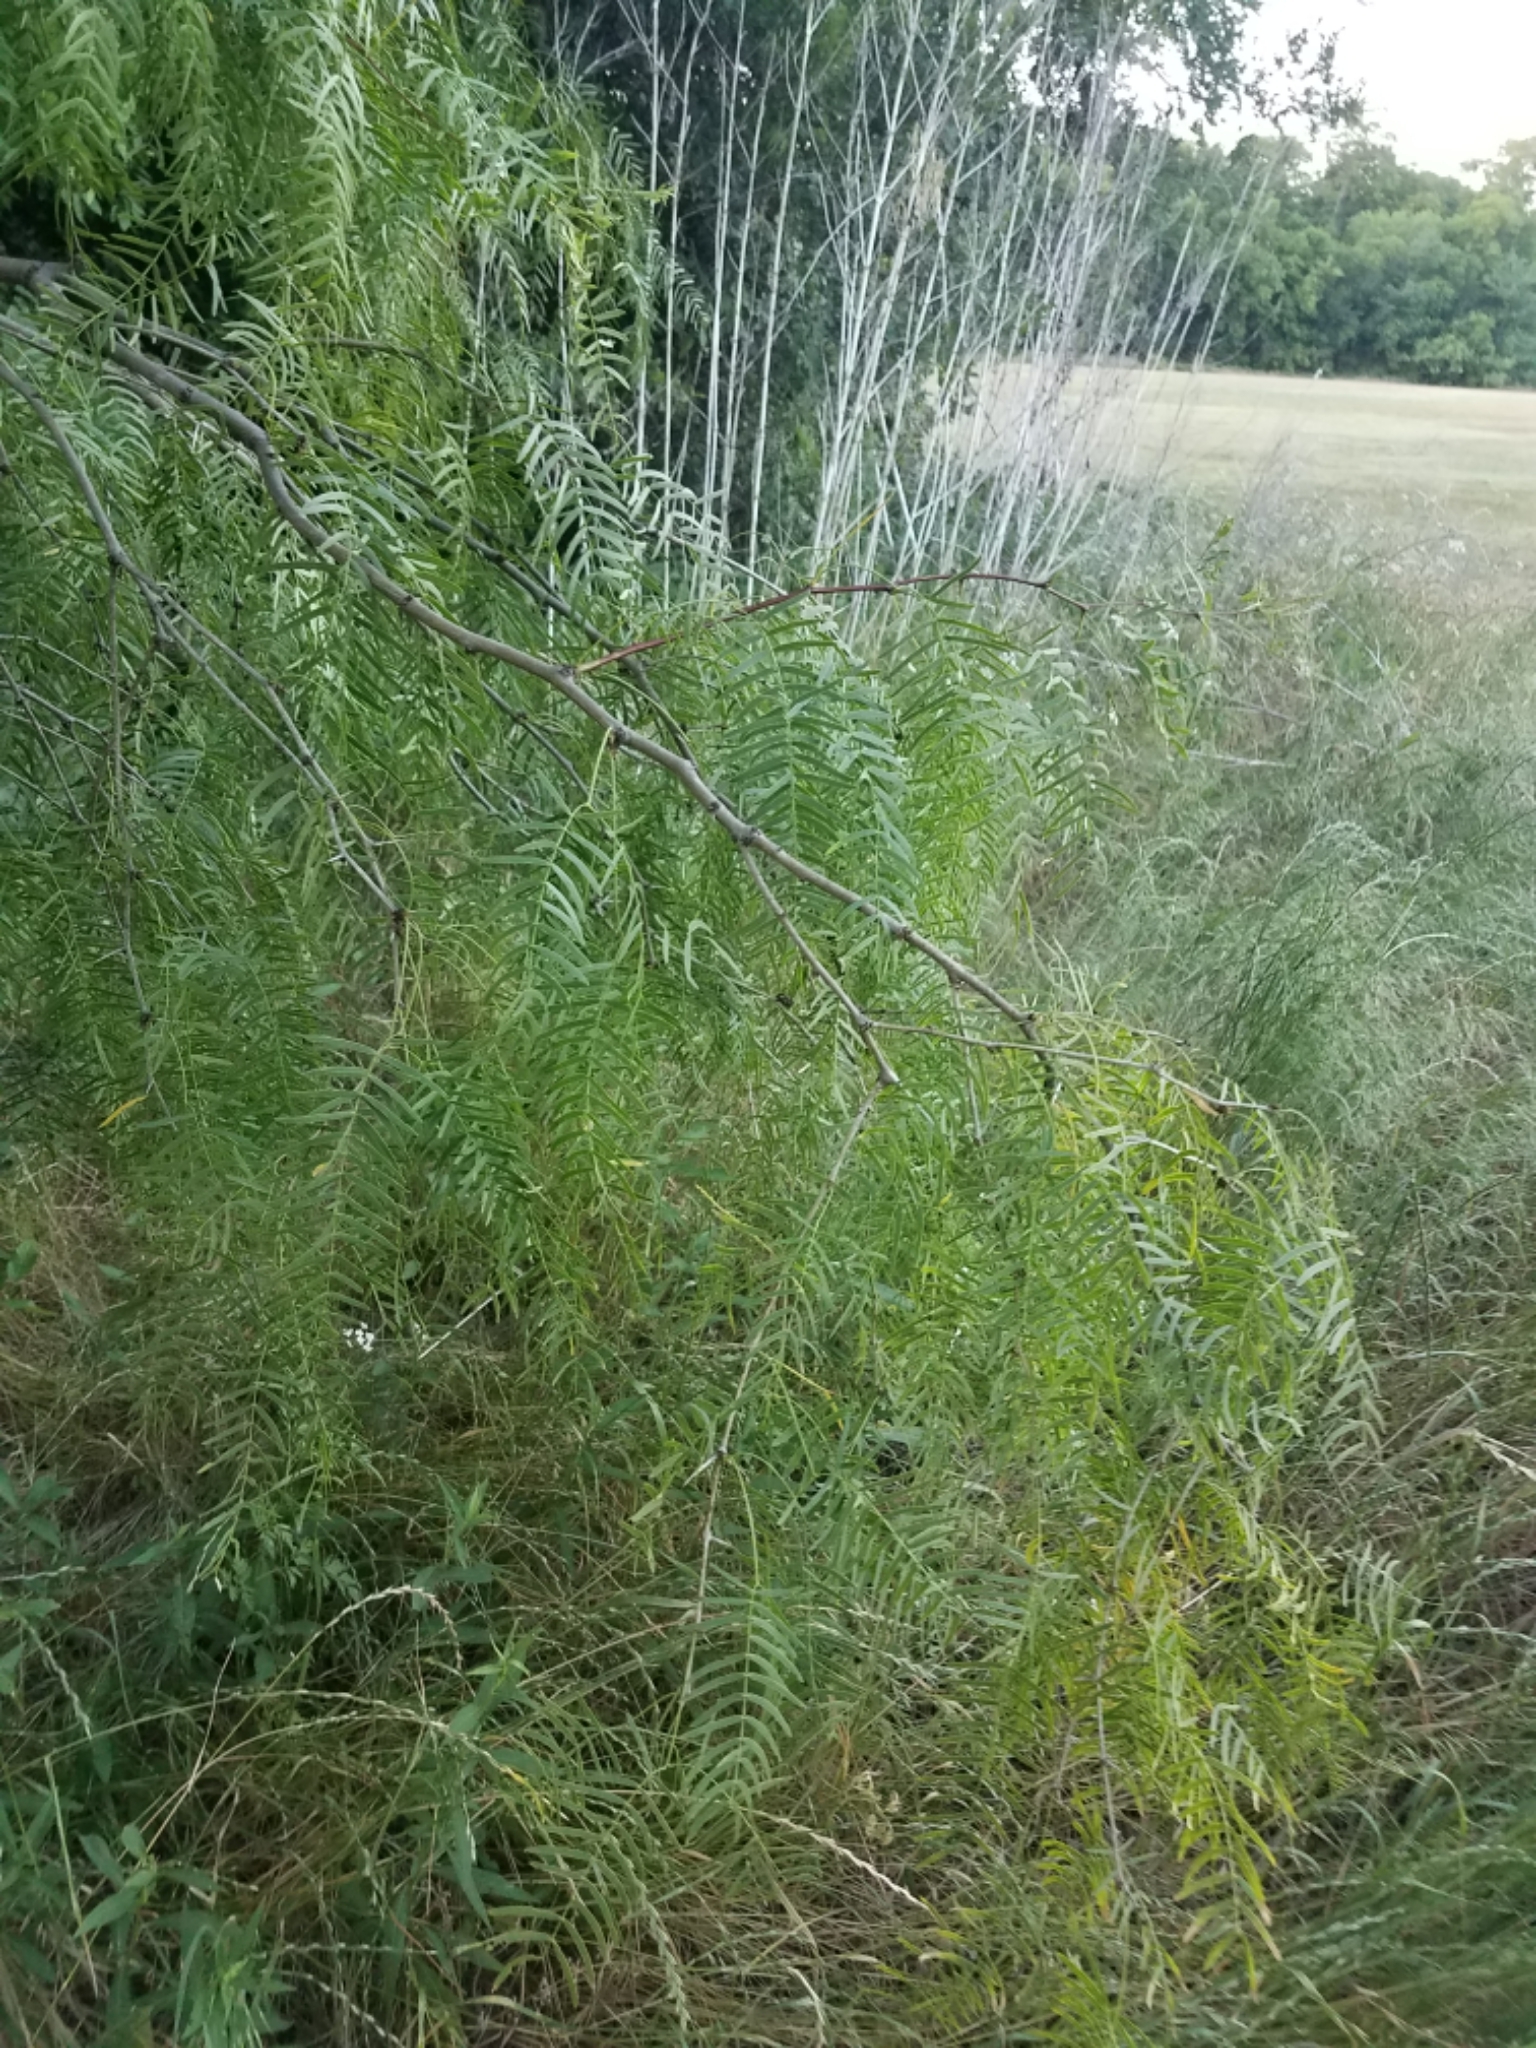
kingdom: Plantae
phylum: Tracheophyta
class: Magnoliopsida
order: Fabales
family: Fabaceae
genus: Prosopis
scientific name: Prosopis glandulosa
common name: Honey mesquite
